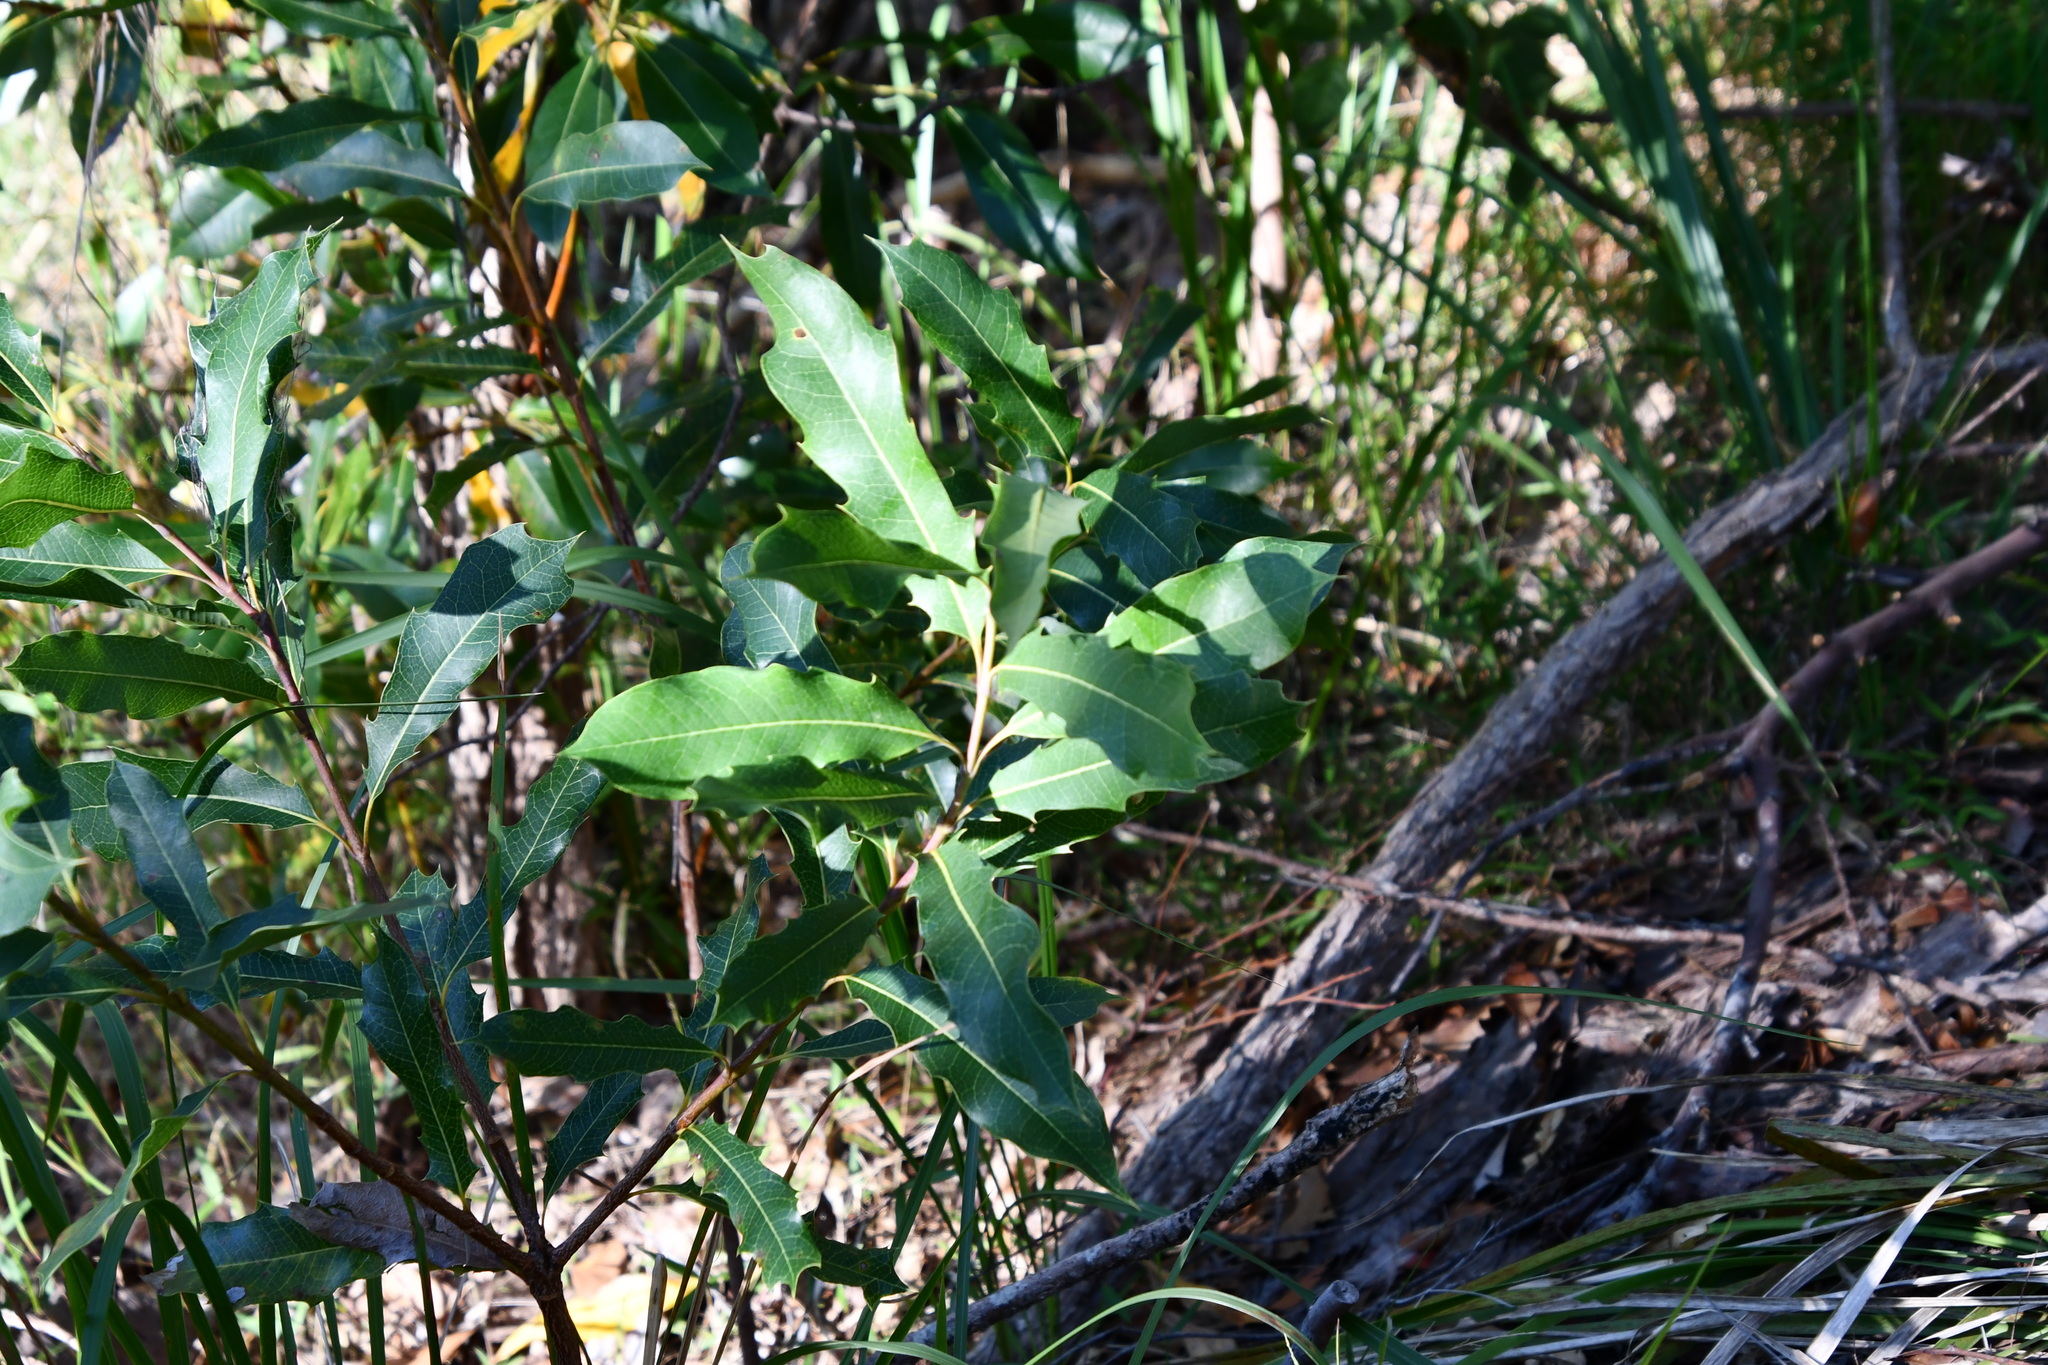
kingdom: Plantae
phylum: Tracheophyta
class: Magnoliopsida
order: Proteales
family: Proteaceae
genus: Xylomelum
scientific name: Xylomelum pyriforme
